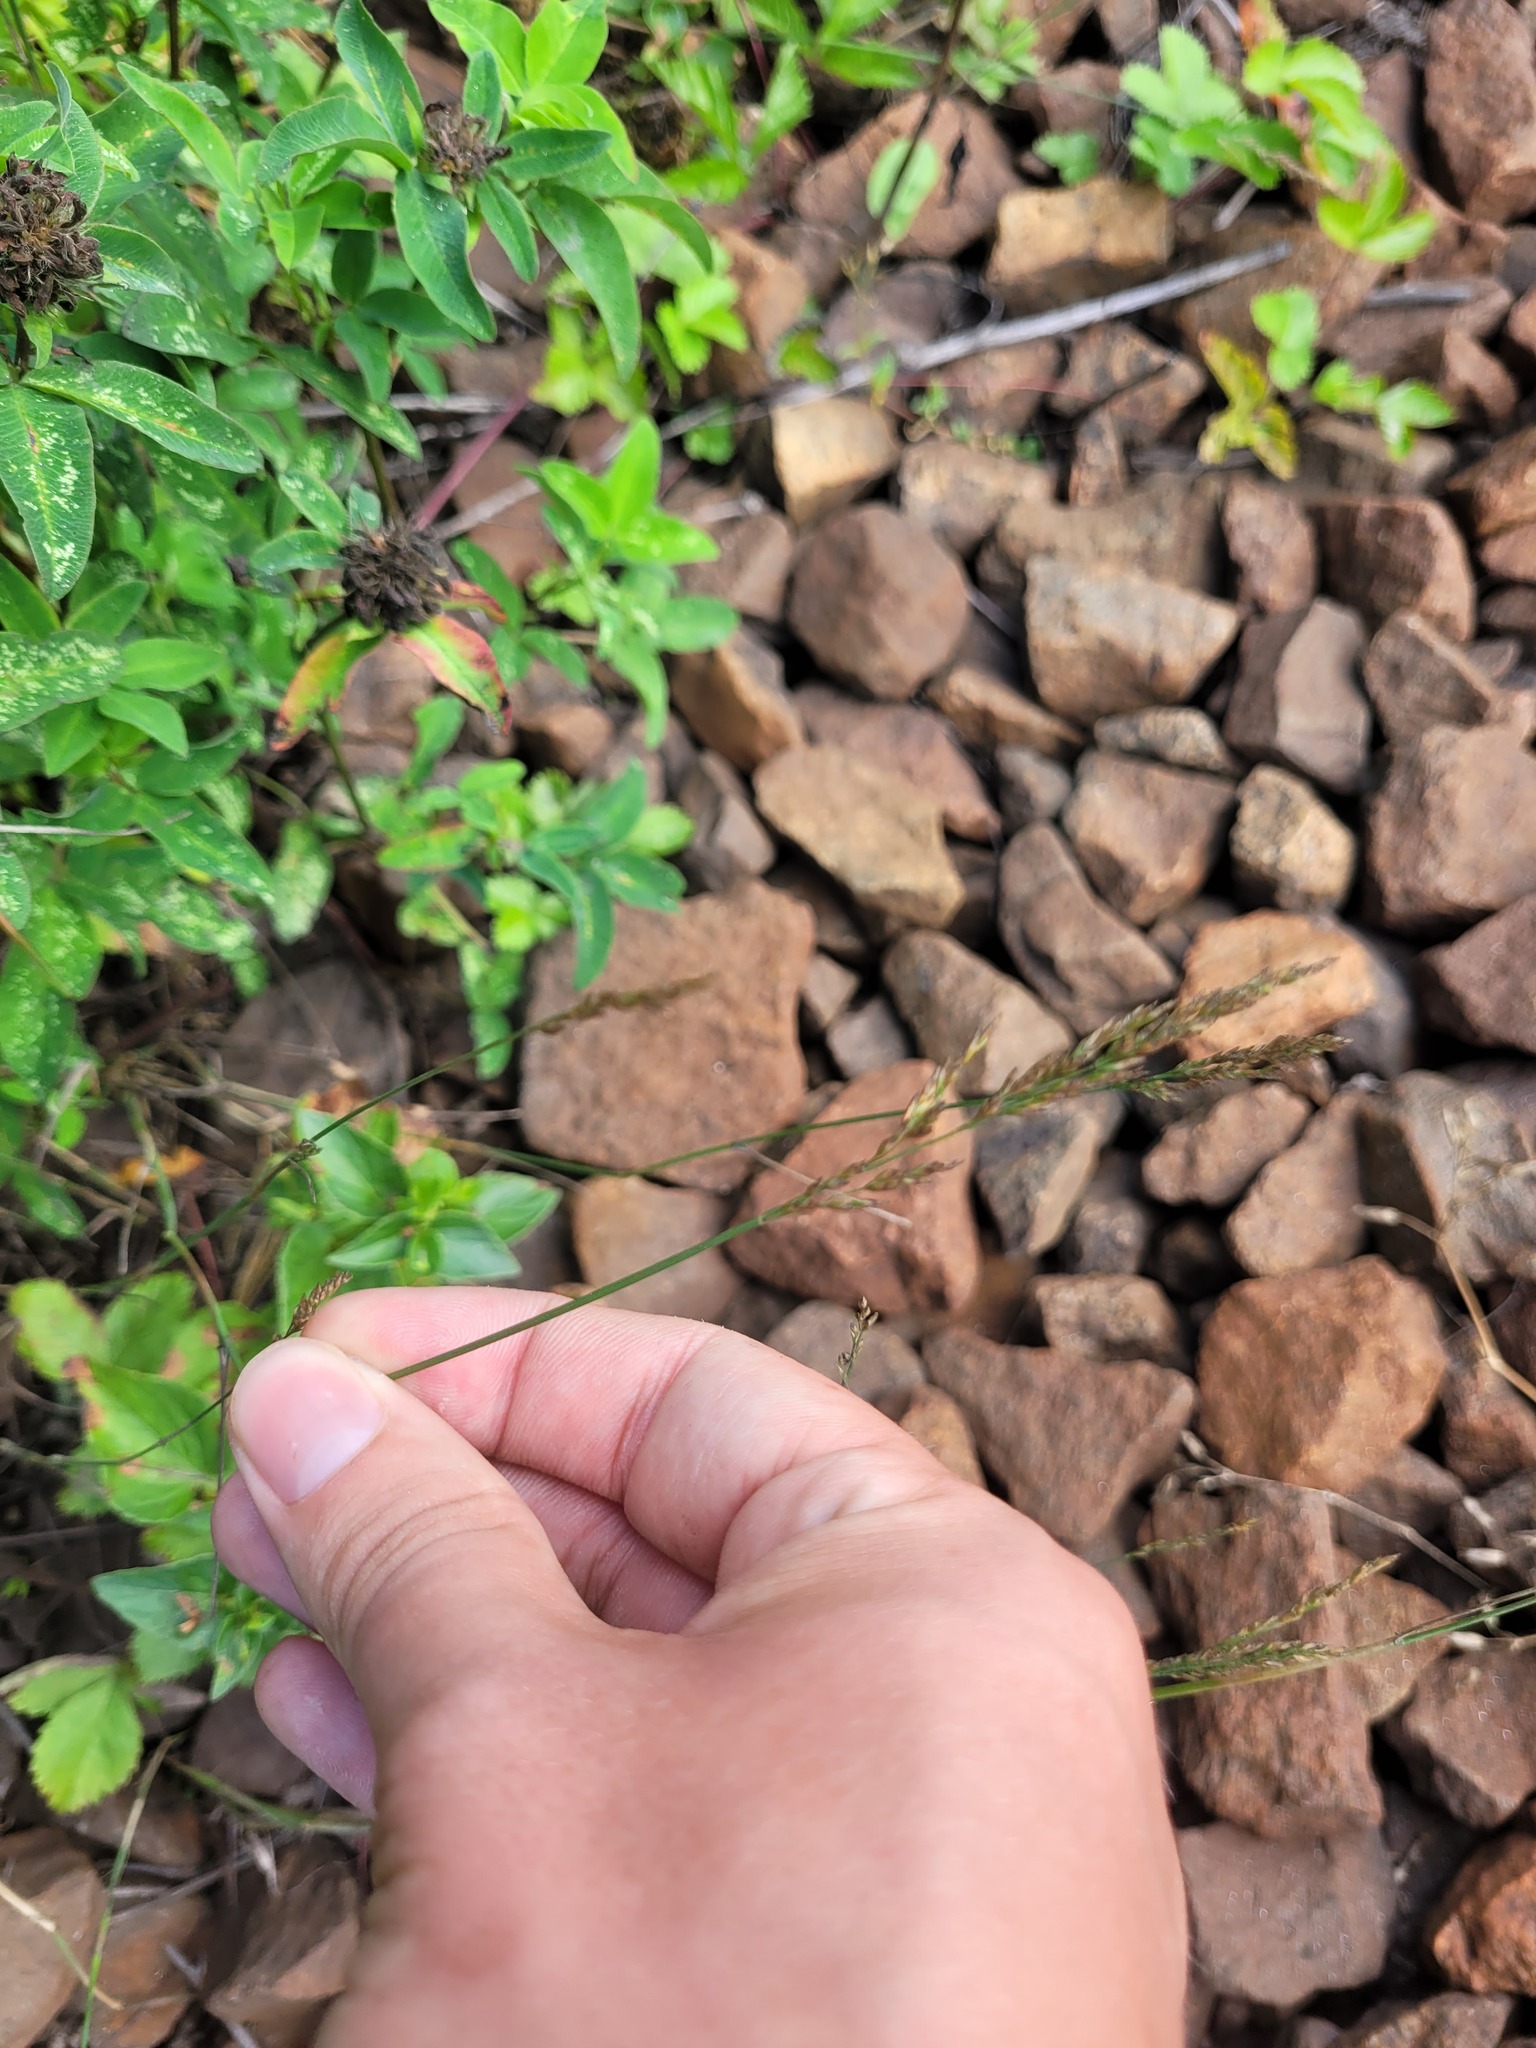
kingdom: Plantae
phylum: Tracheophyta
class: Liliopsida
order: Poales
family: Poaceae
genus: Poa
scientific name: Poa compressa
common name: Canada bluegrass
